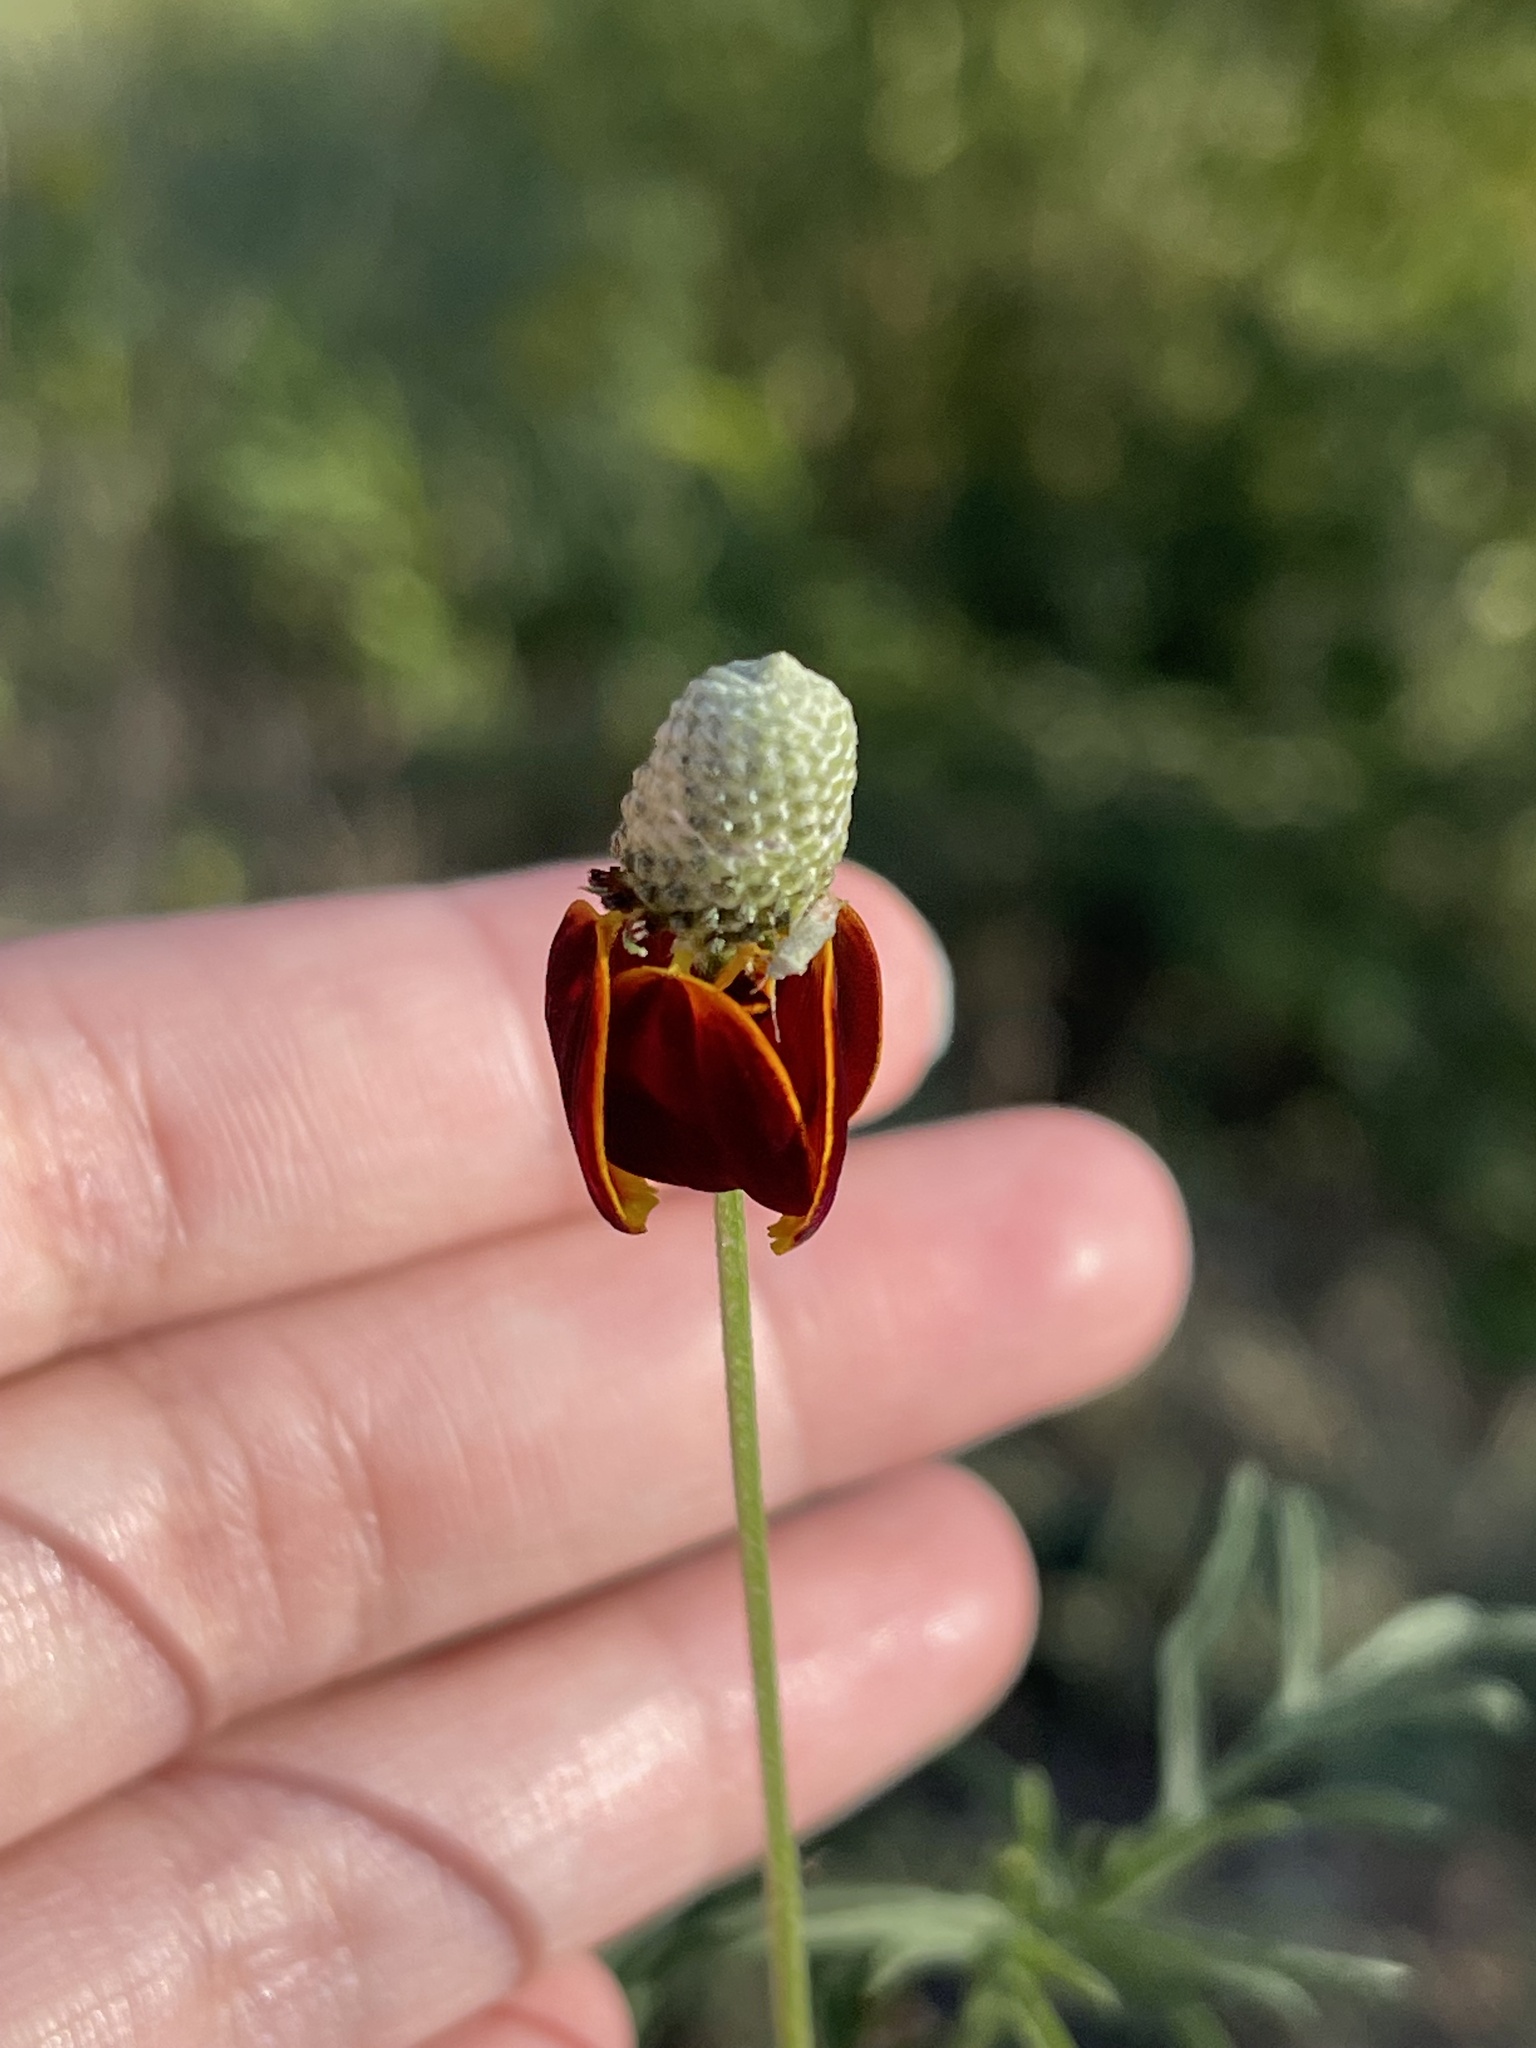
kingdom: Plantae
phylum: Tracheophyta
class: Magnoliopsida
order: Asterales
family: Asteraceae
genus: Ratibida
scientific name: Ratibida columnifera
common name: Prairie coneflower
